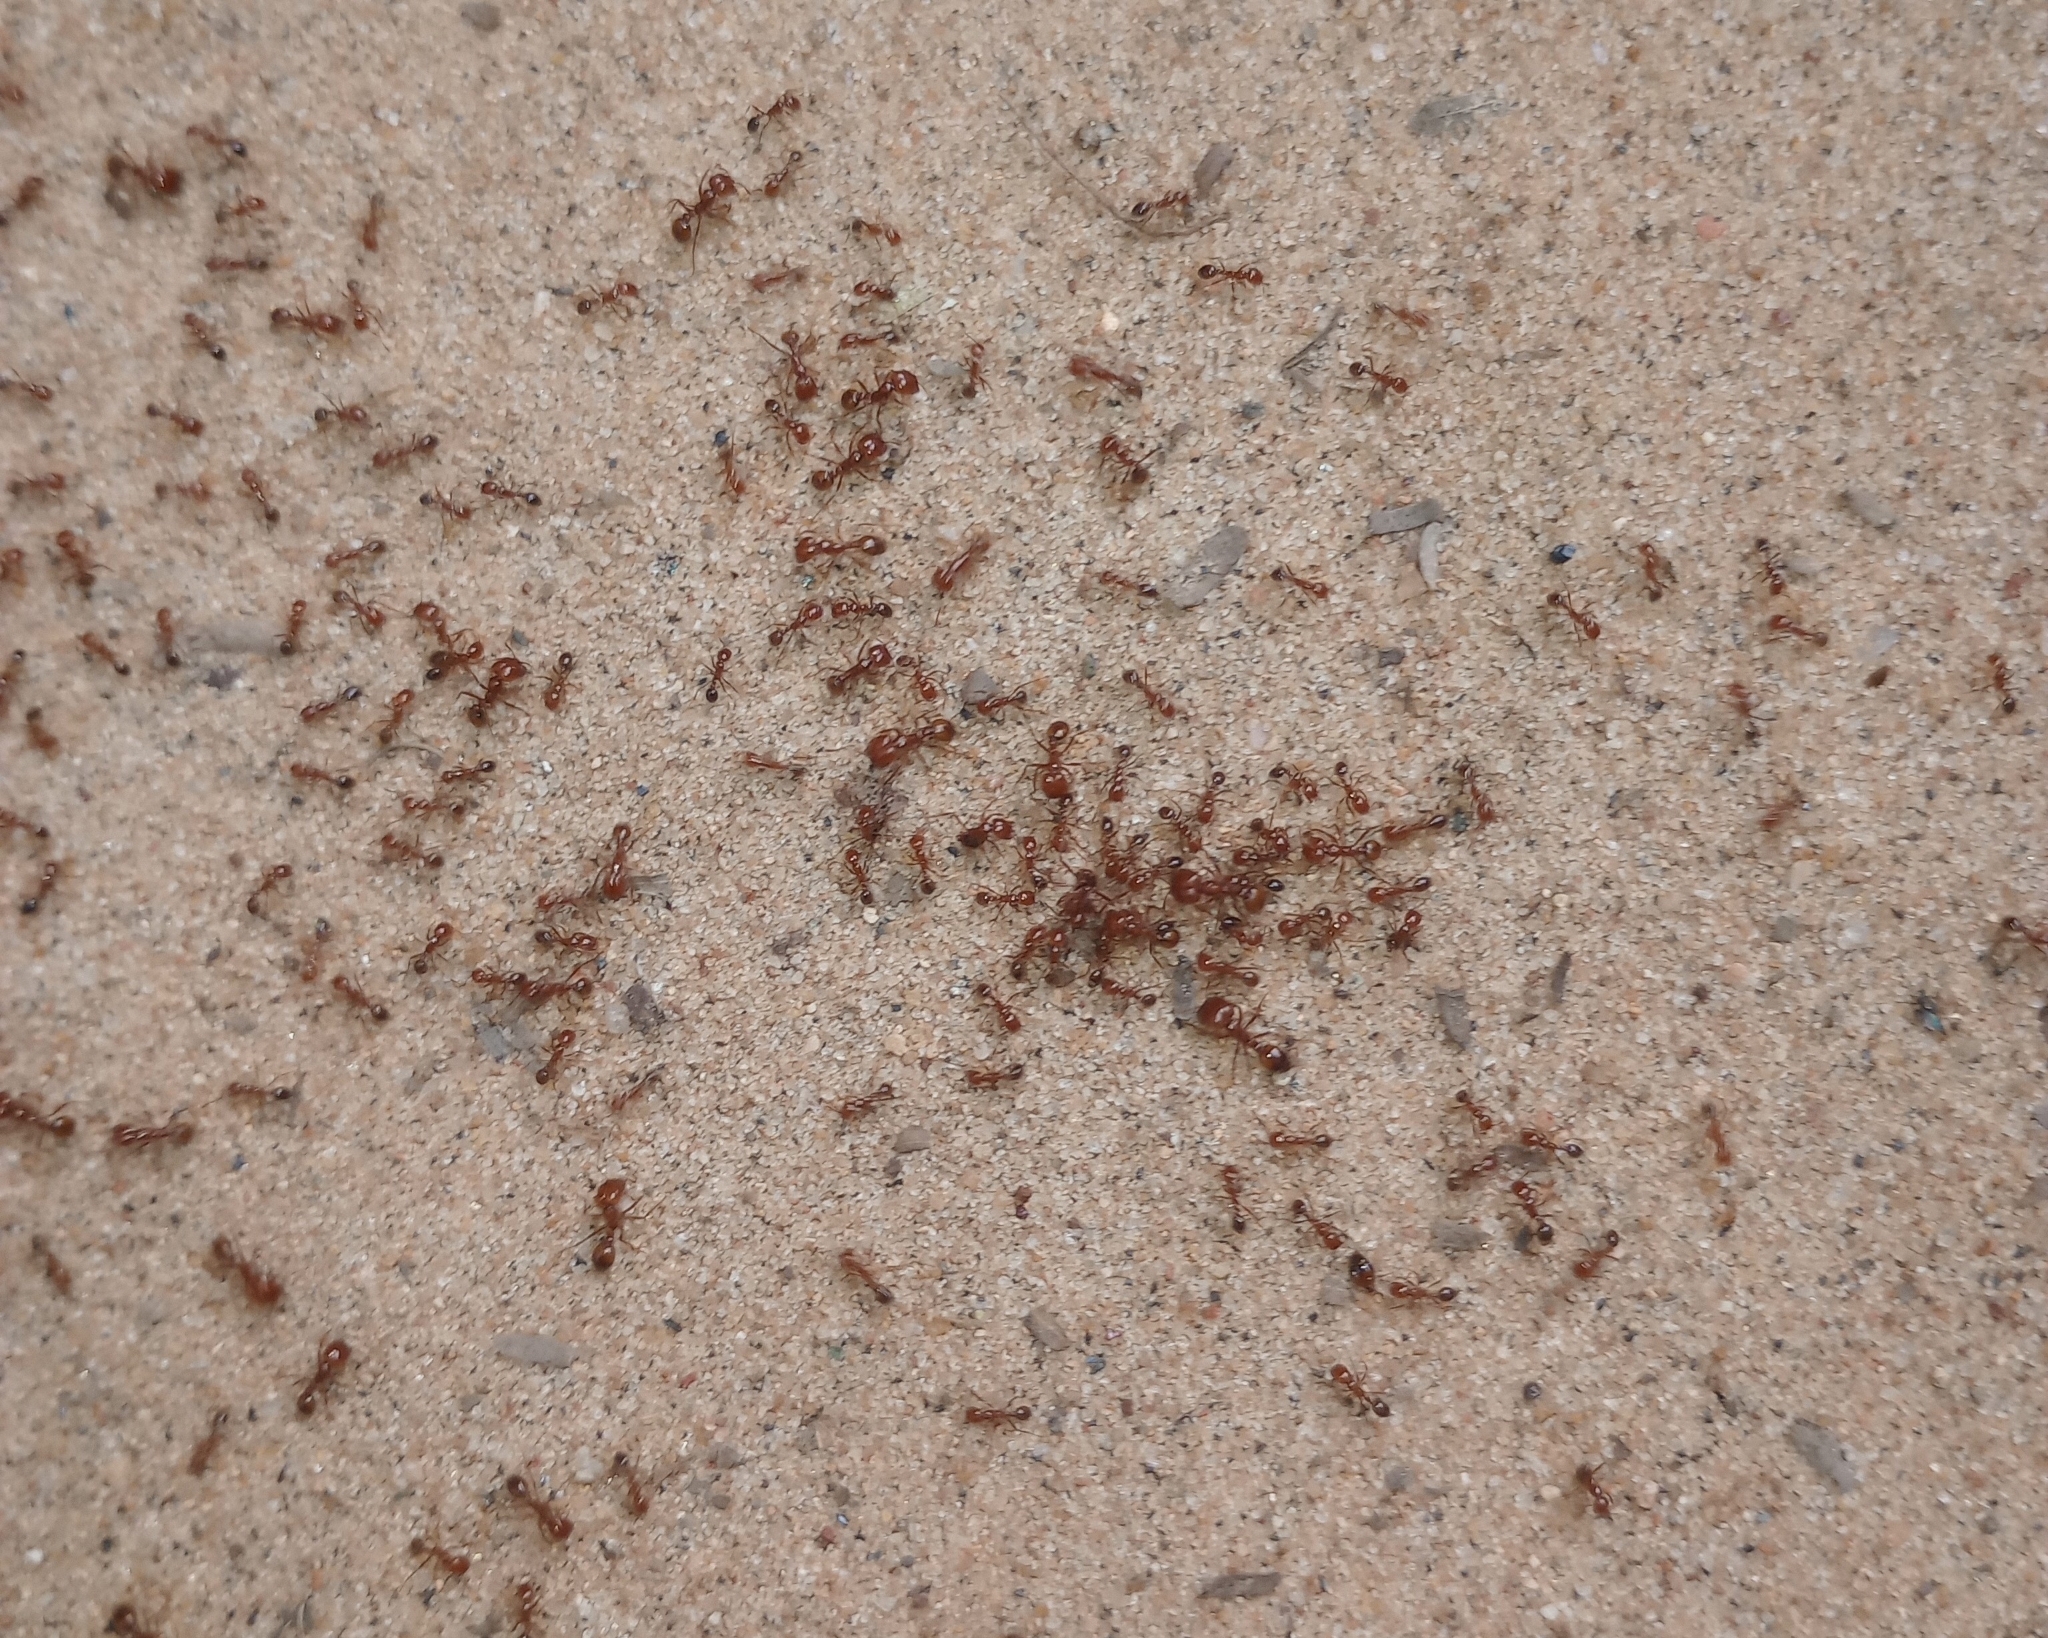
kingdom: Animalia
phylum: Arthropoda
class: Insecta
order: Hymenoptera
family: Formicidae
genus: Solenopsis
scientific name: Solenopsis geminata
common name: Tropical fire ant
